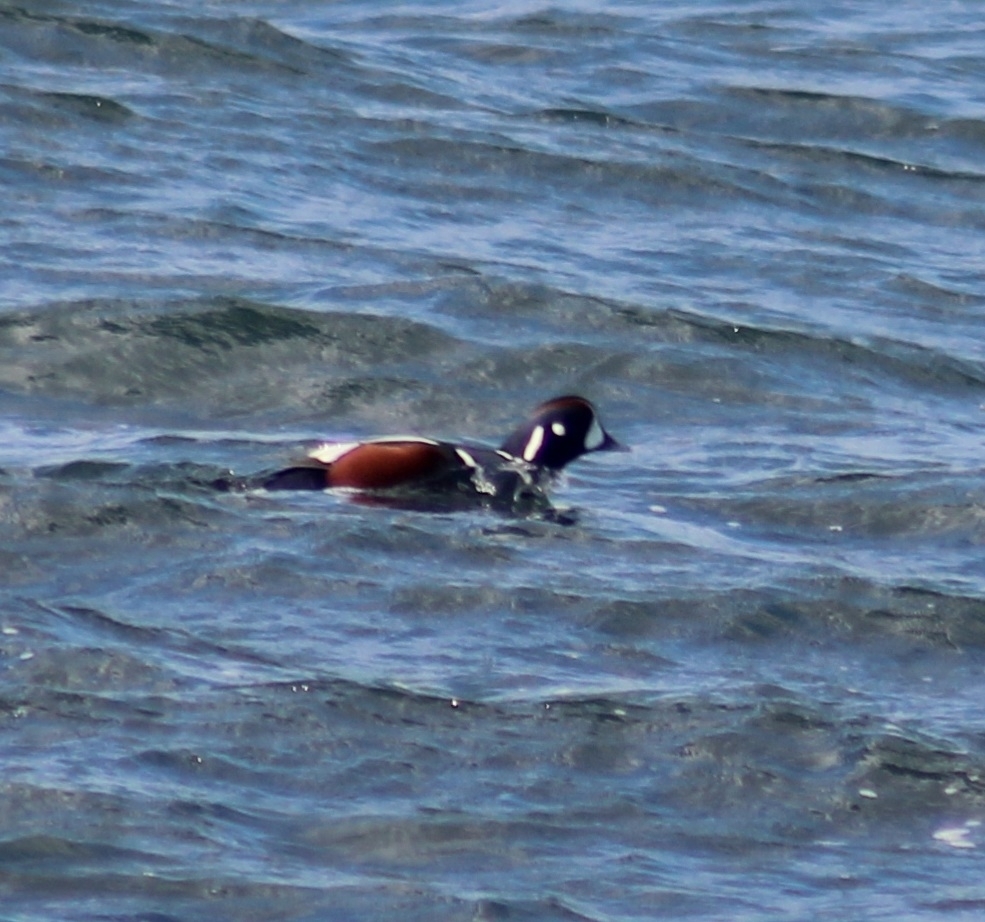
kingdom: Animalia
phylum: Chordata
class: Aves
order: Anseriformes
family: Anatidae
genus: Histrionicus
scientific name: Histrionicus histrionicus
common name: Harlequin duck
